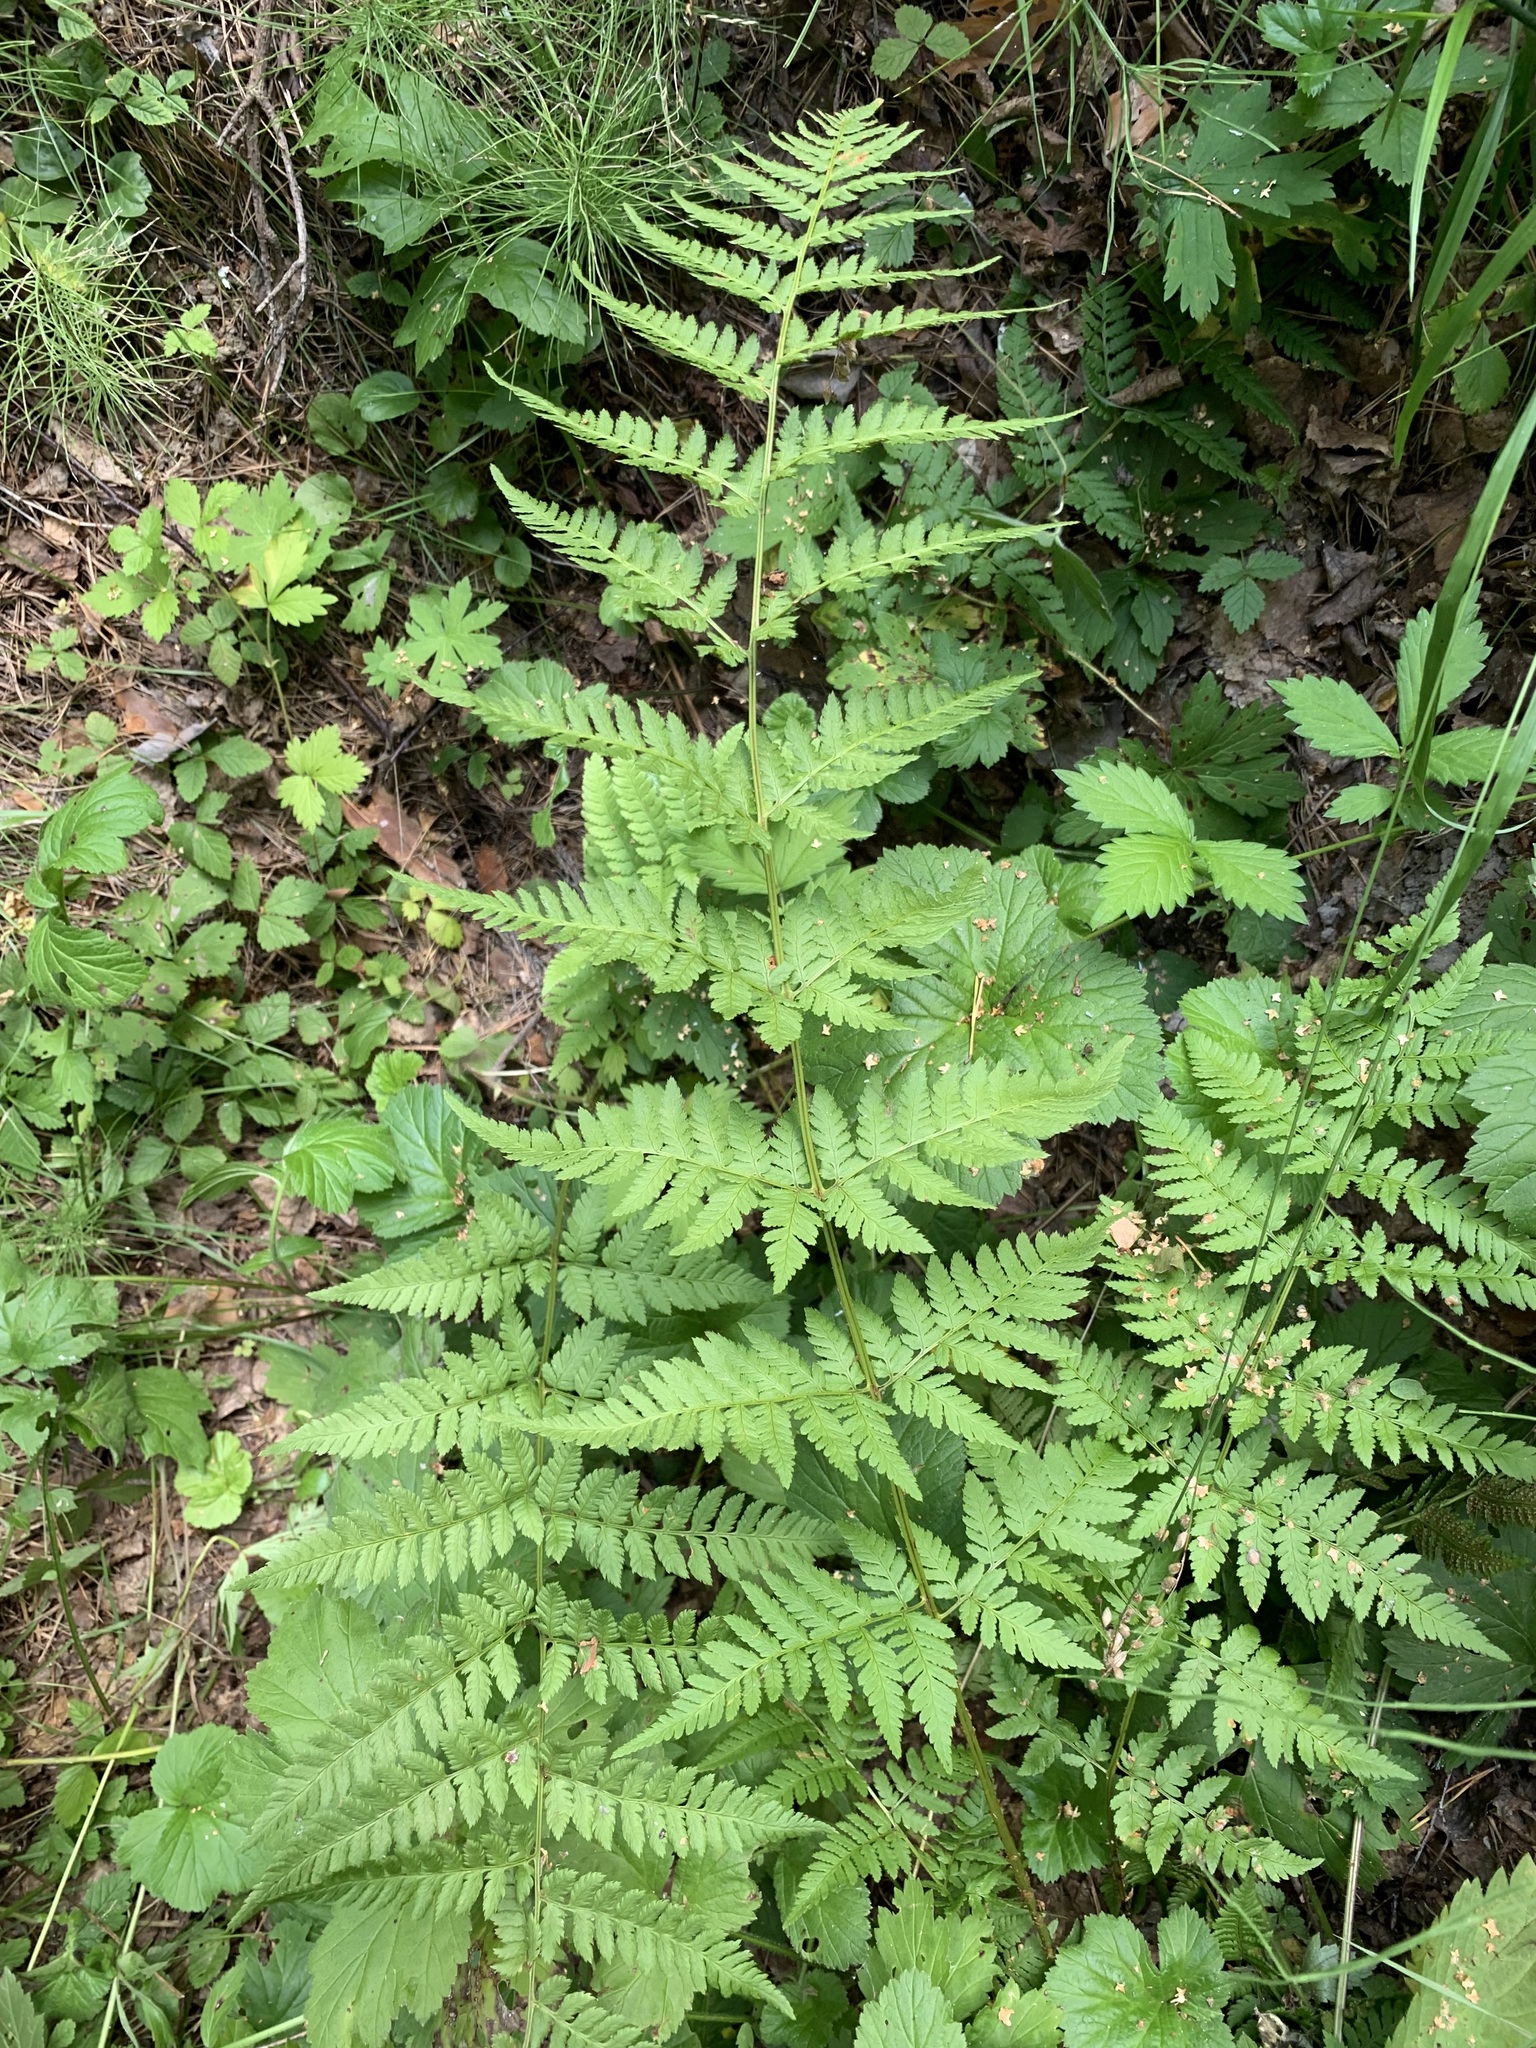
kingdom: Plantae
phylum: Tracheophyta
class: Polypodiopsida
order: Polypodiales
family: Dryopteridaceae
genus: Dryopteris
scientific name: Dryopteris carthusiana
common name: Narrow buckler-fern
